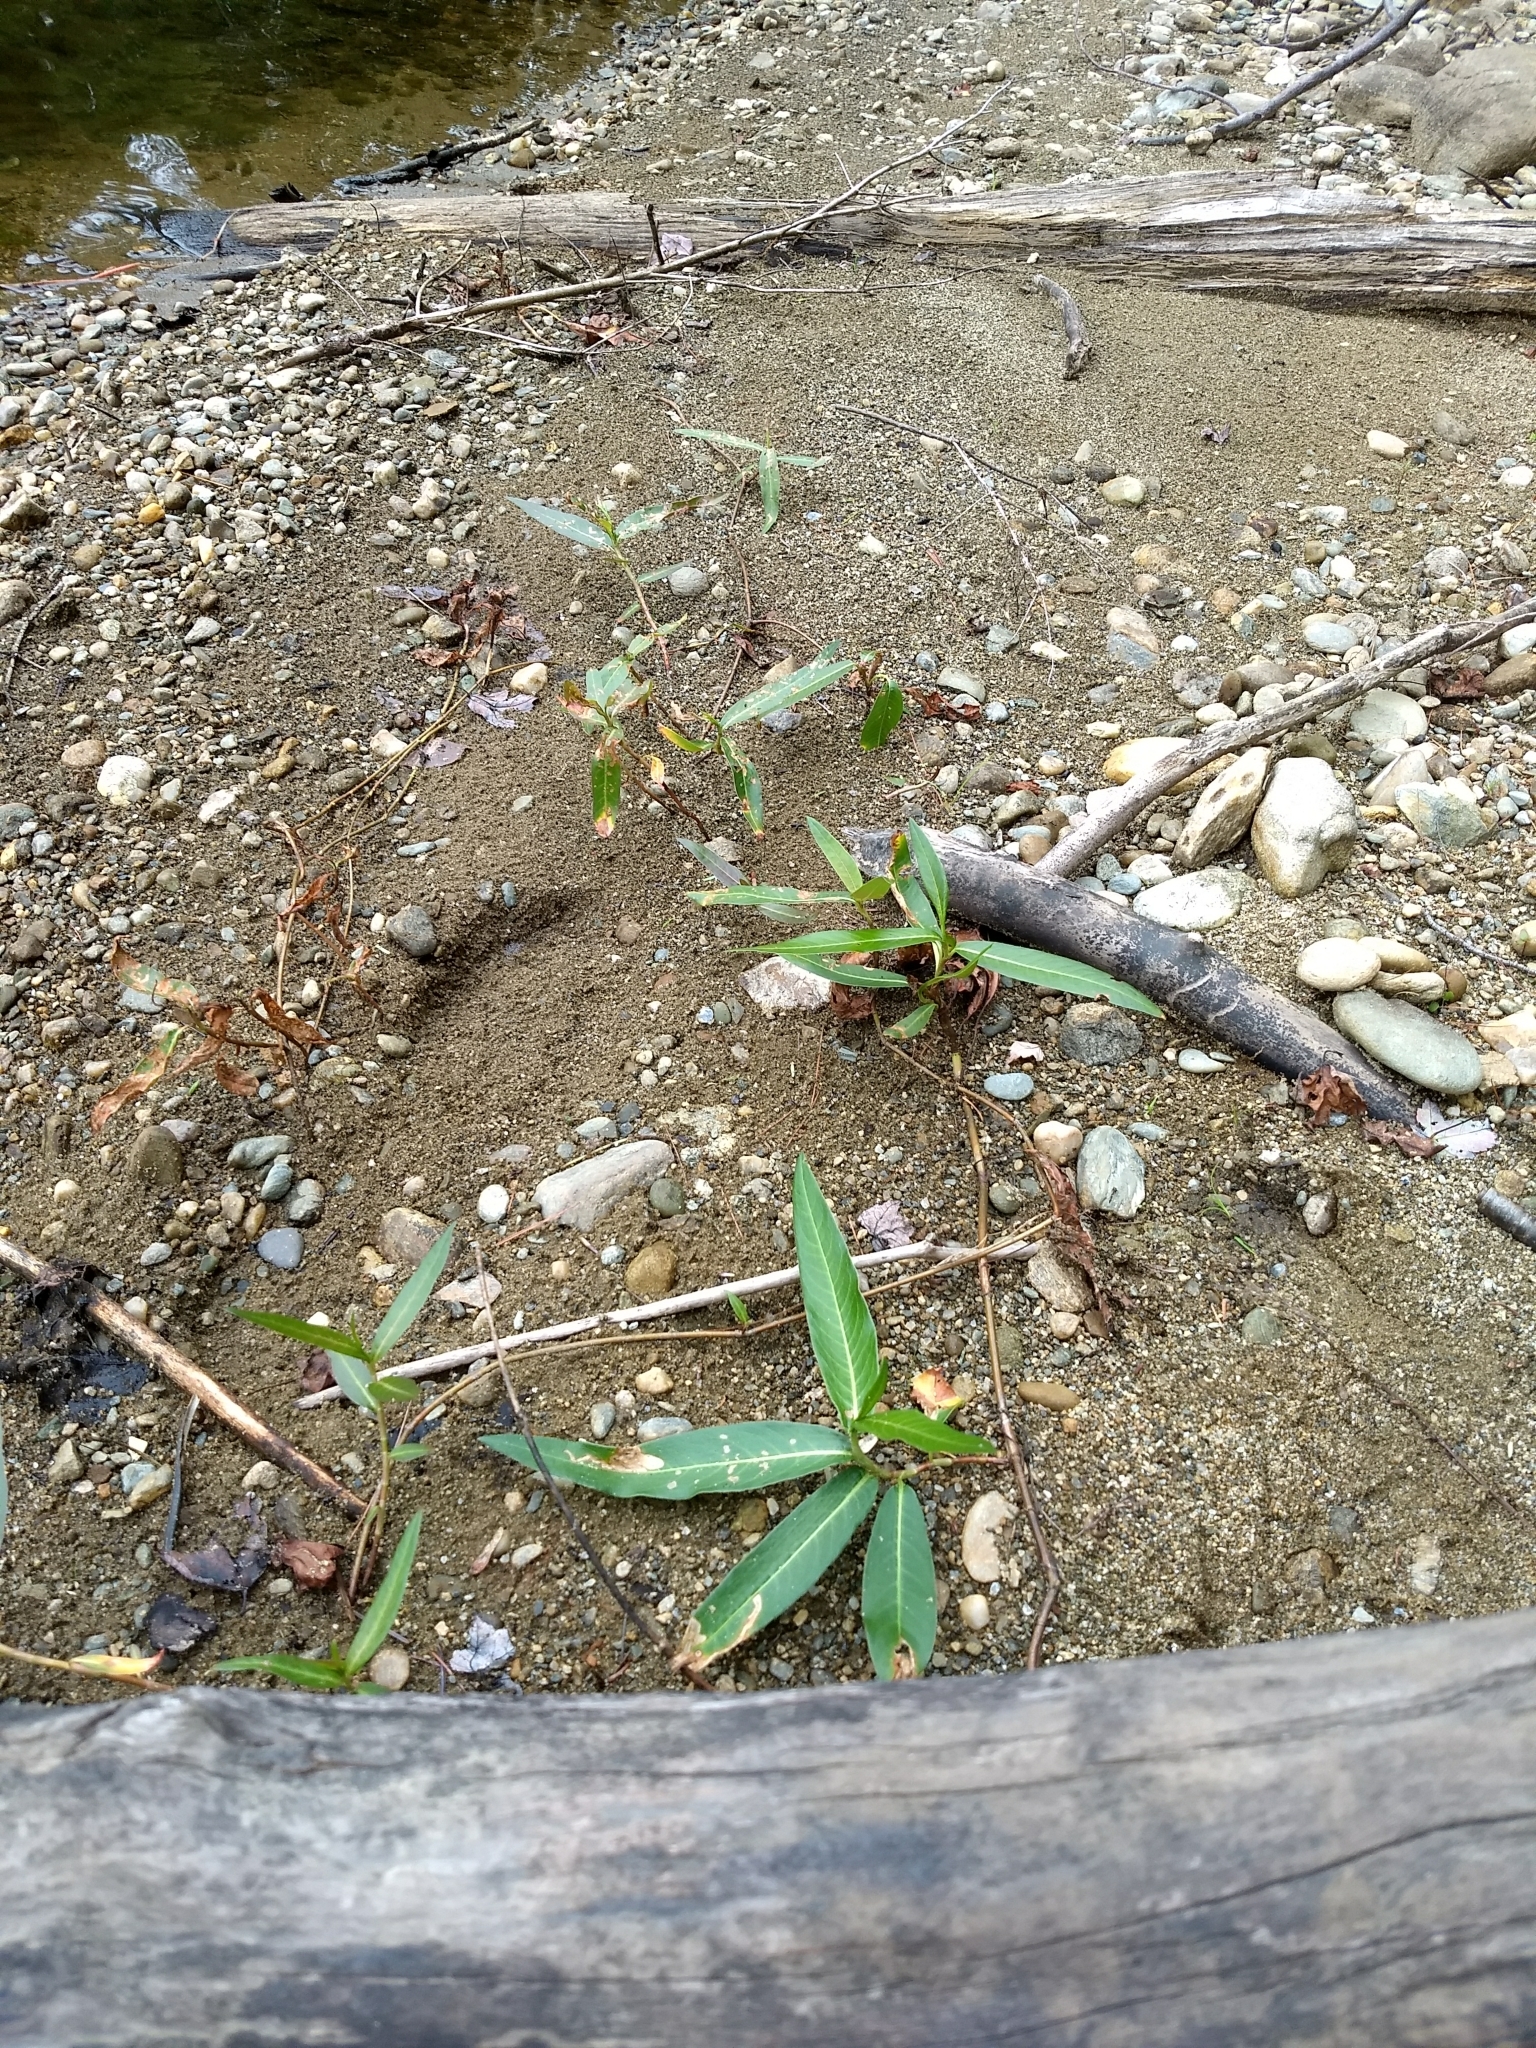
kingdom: Plantae
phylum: Tracheophyta
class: Magnoliopsida
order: Caryophyllales
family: Polygonaceae
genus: Persicaria
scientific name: Persicaria amphibia
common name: Amphibious bistort
